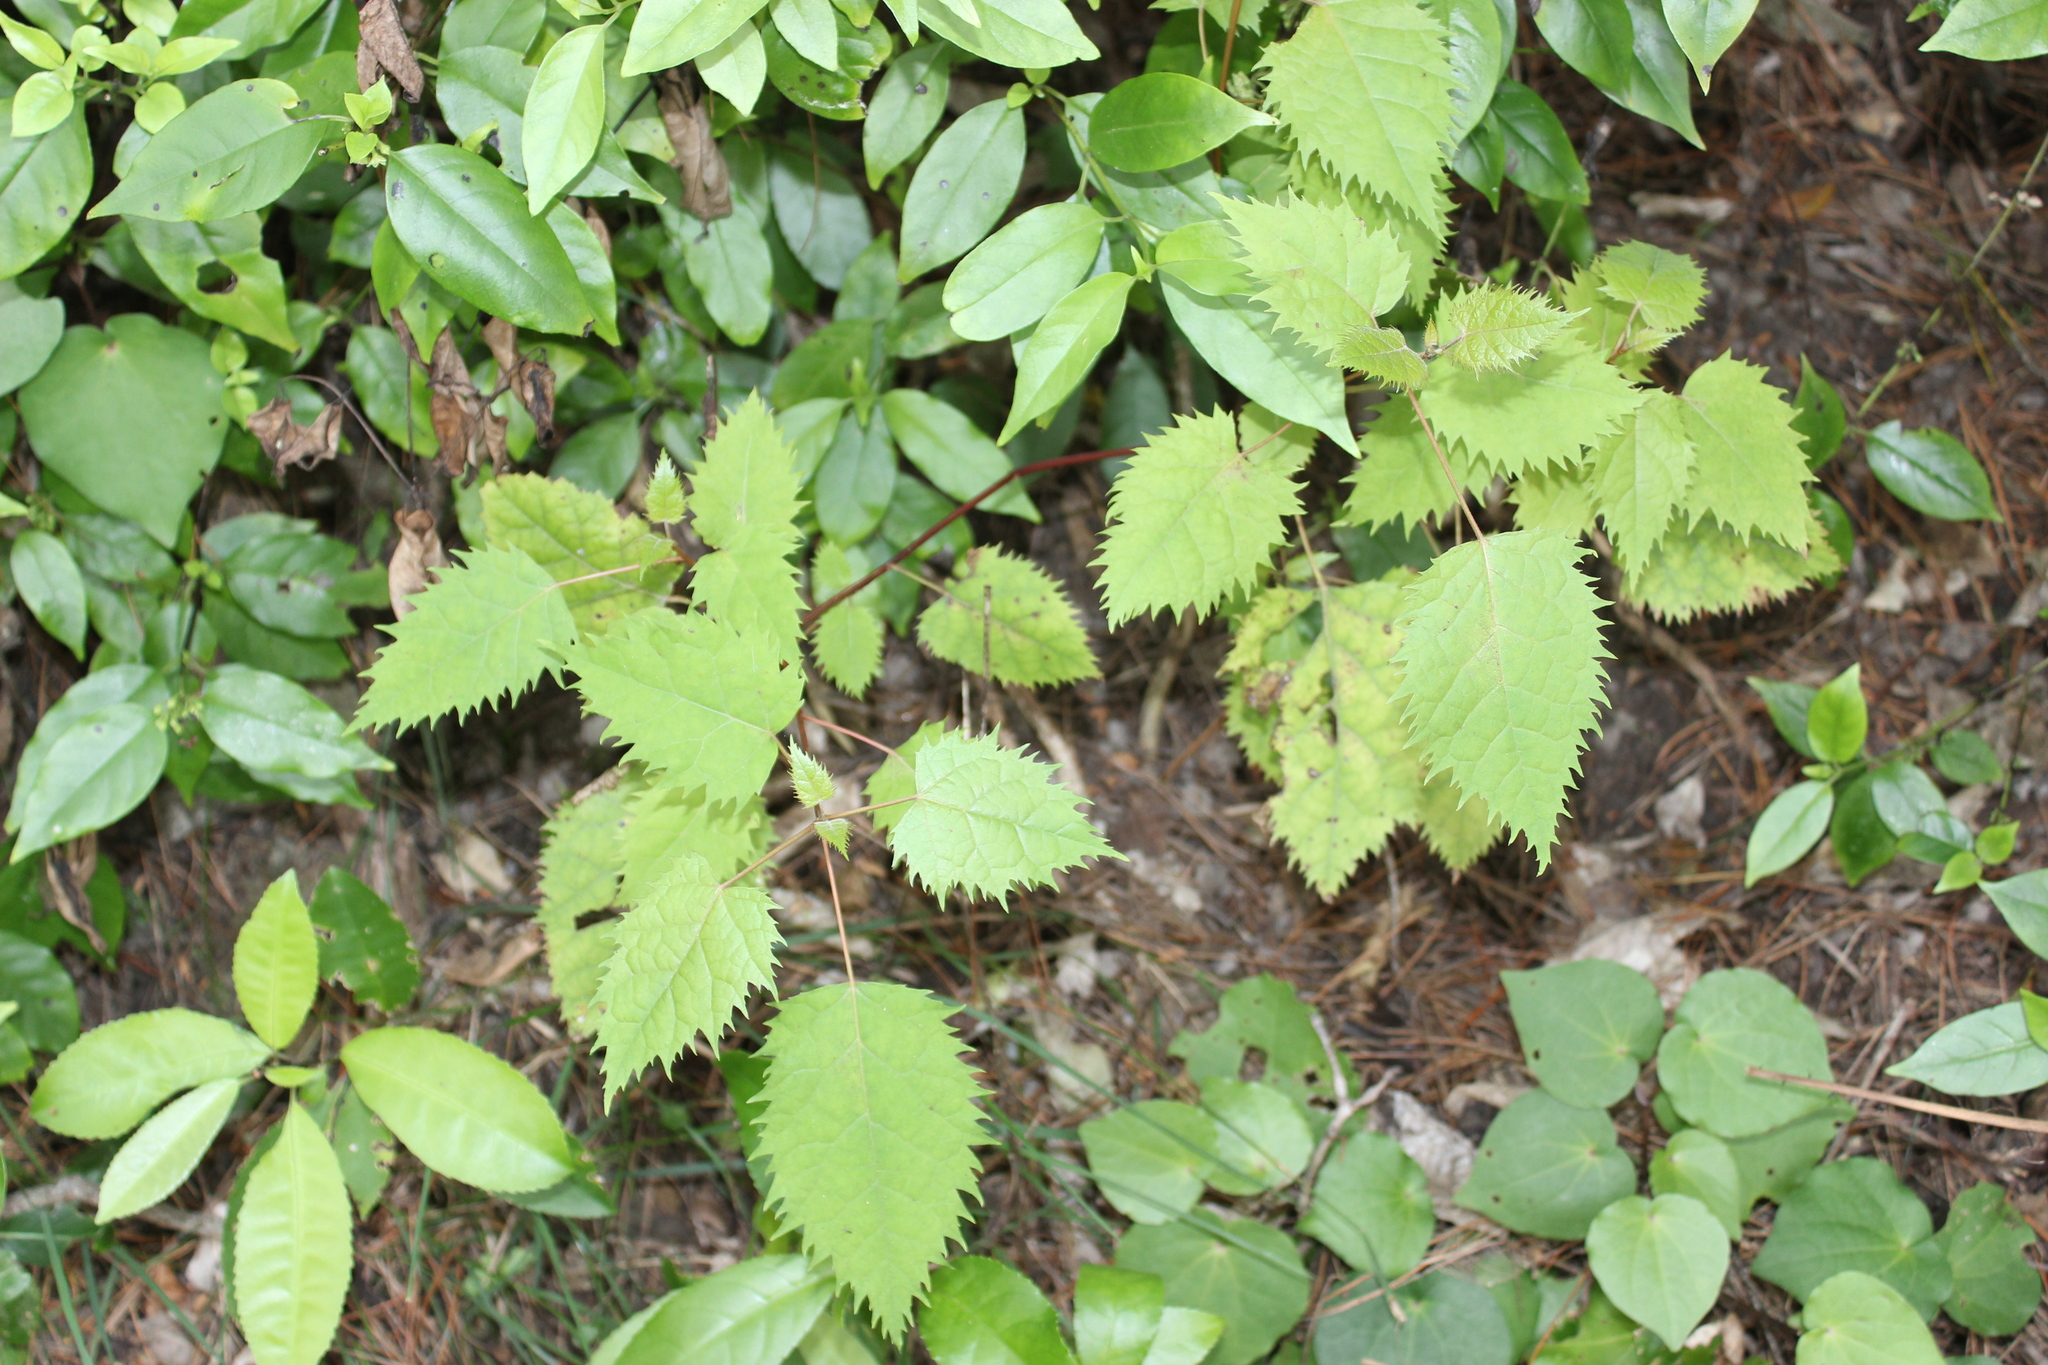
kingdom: Plantae
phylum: Tracheophyta
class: Magnoliopsida
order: Oxalidales
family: Elaeocarpaceae
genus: Aristotelia
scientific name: Aristotelia serrata
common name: New zealand wineberry
